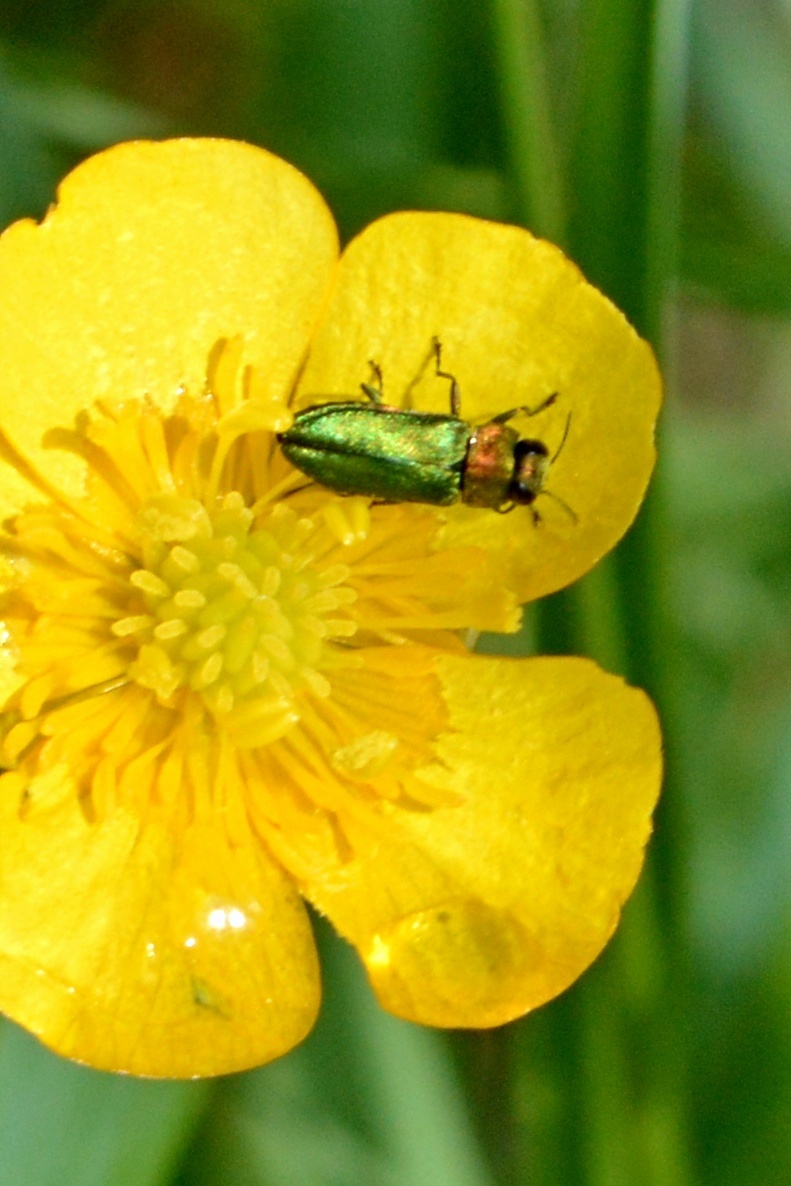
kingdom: Animalia
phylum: Arthropoda
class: Insecta
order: Coleoptera
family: Buprestidae
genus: Anthaxia
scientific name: Anthaxia nitidula
